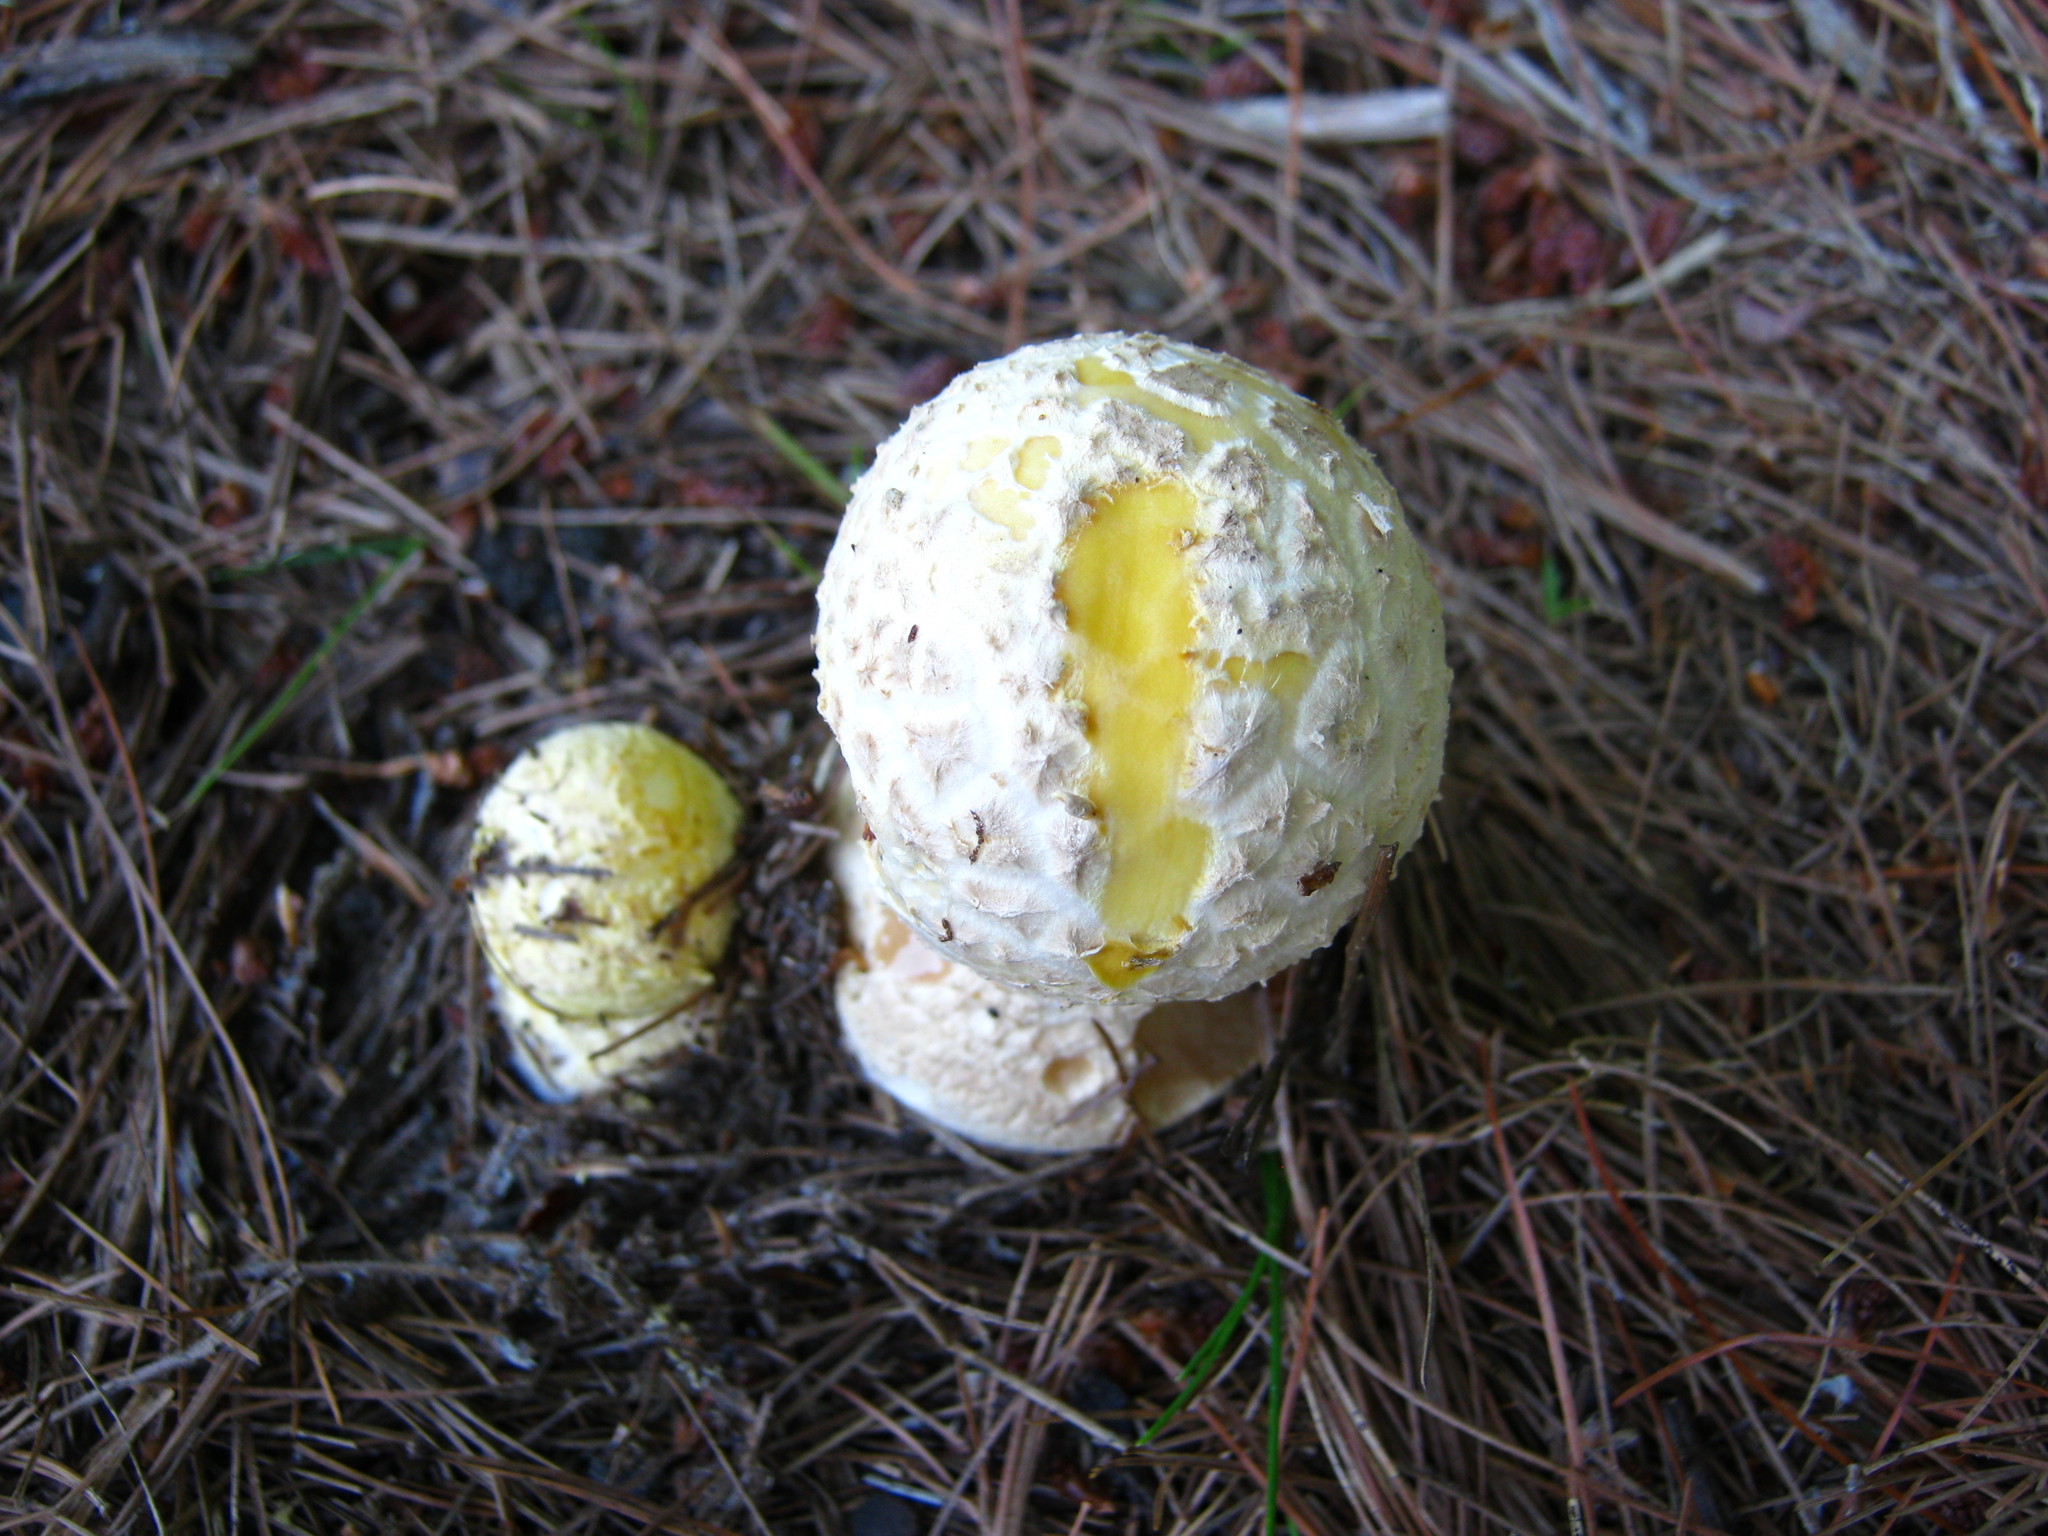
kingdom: Fungi
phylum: Basidiomycota
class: Agaricomycetes
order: Agaricales
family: Amanitaceae
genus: Amanita
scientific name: Amanita muscaria
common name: Fly agaric
